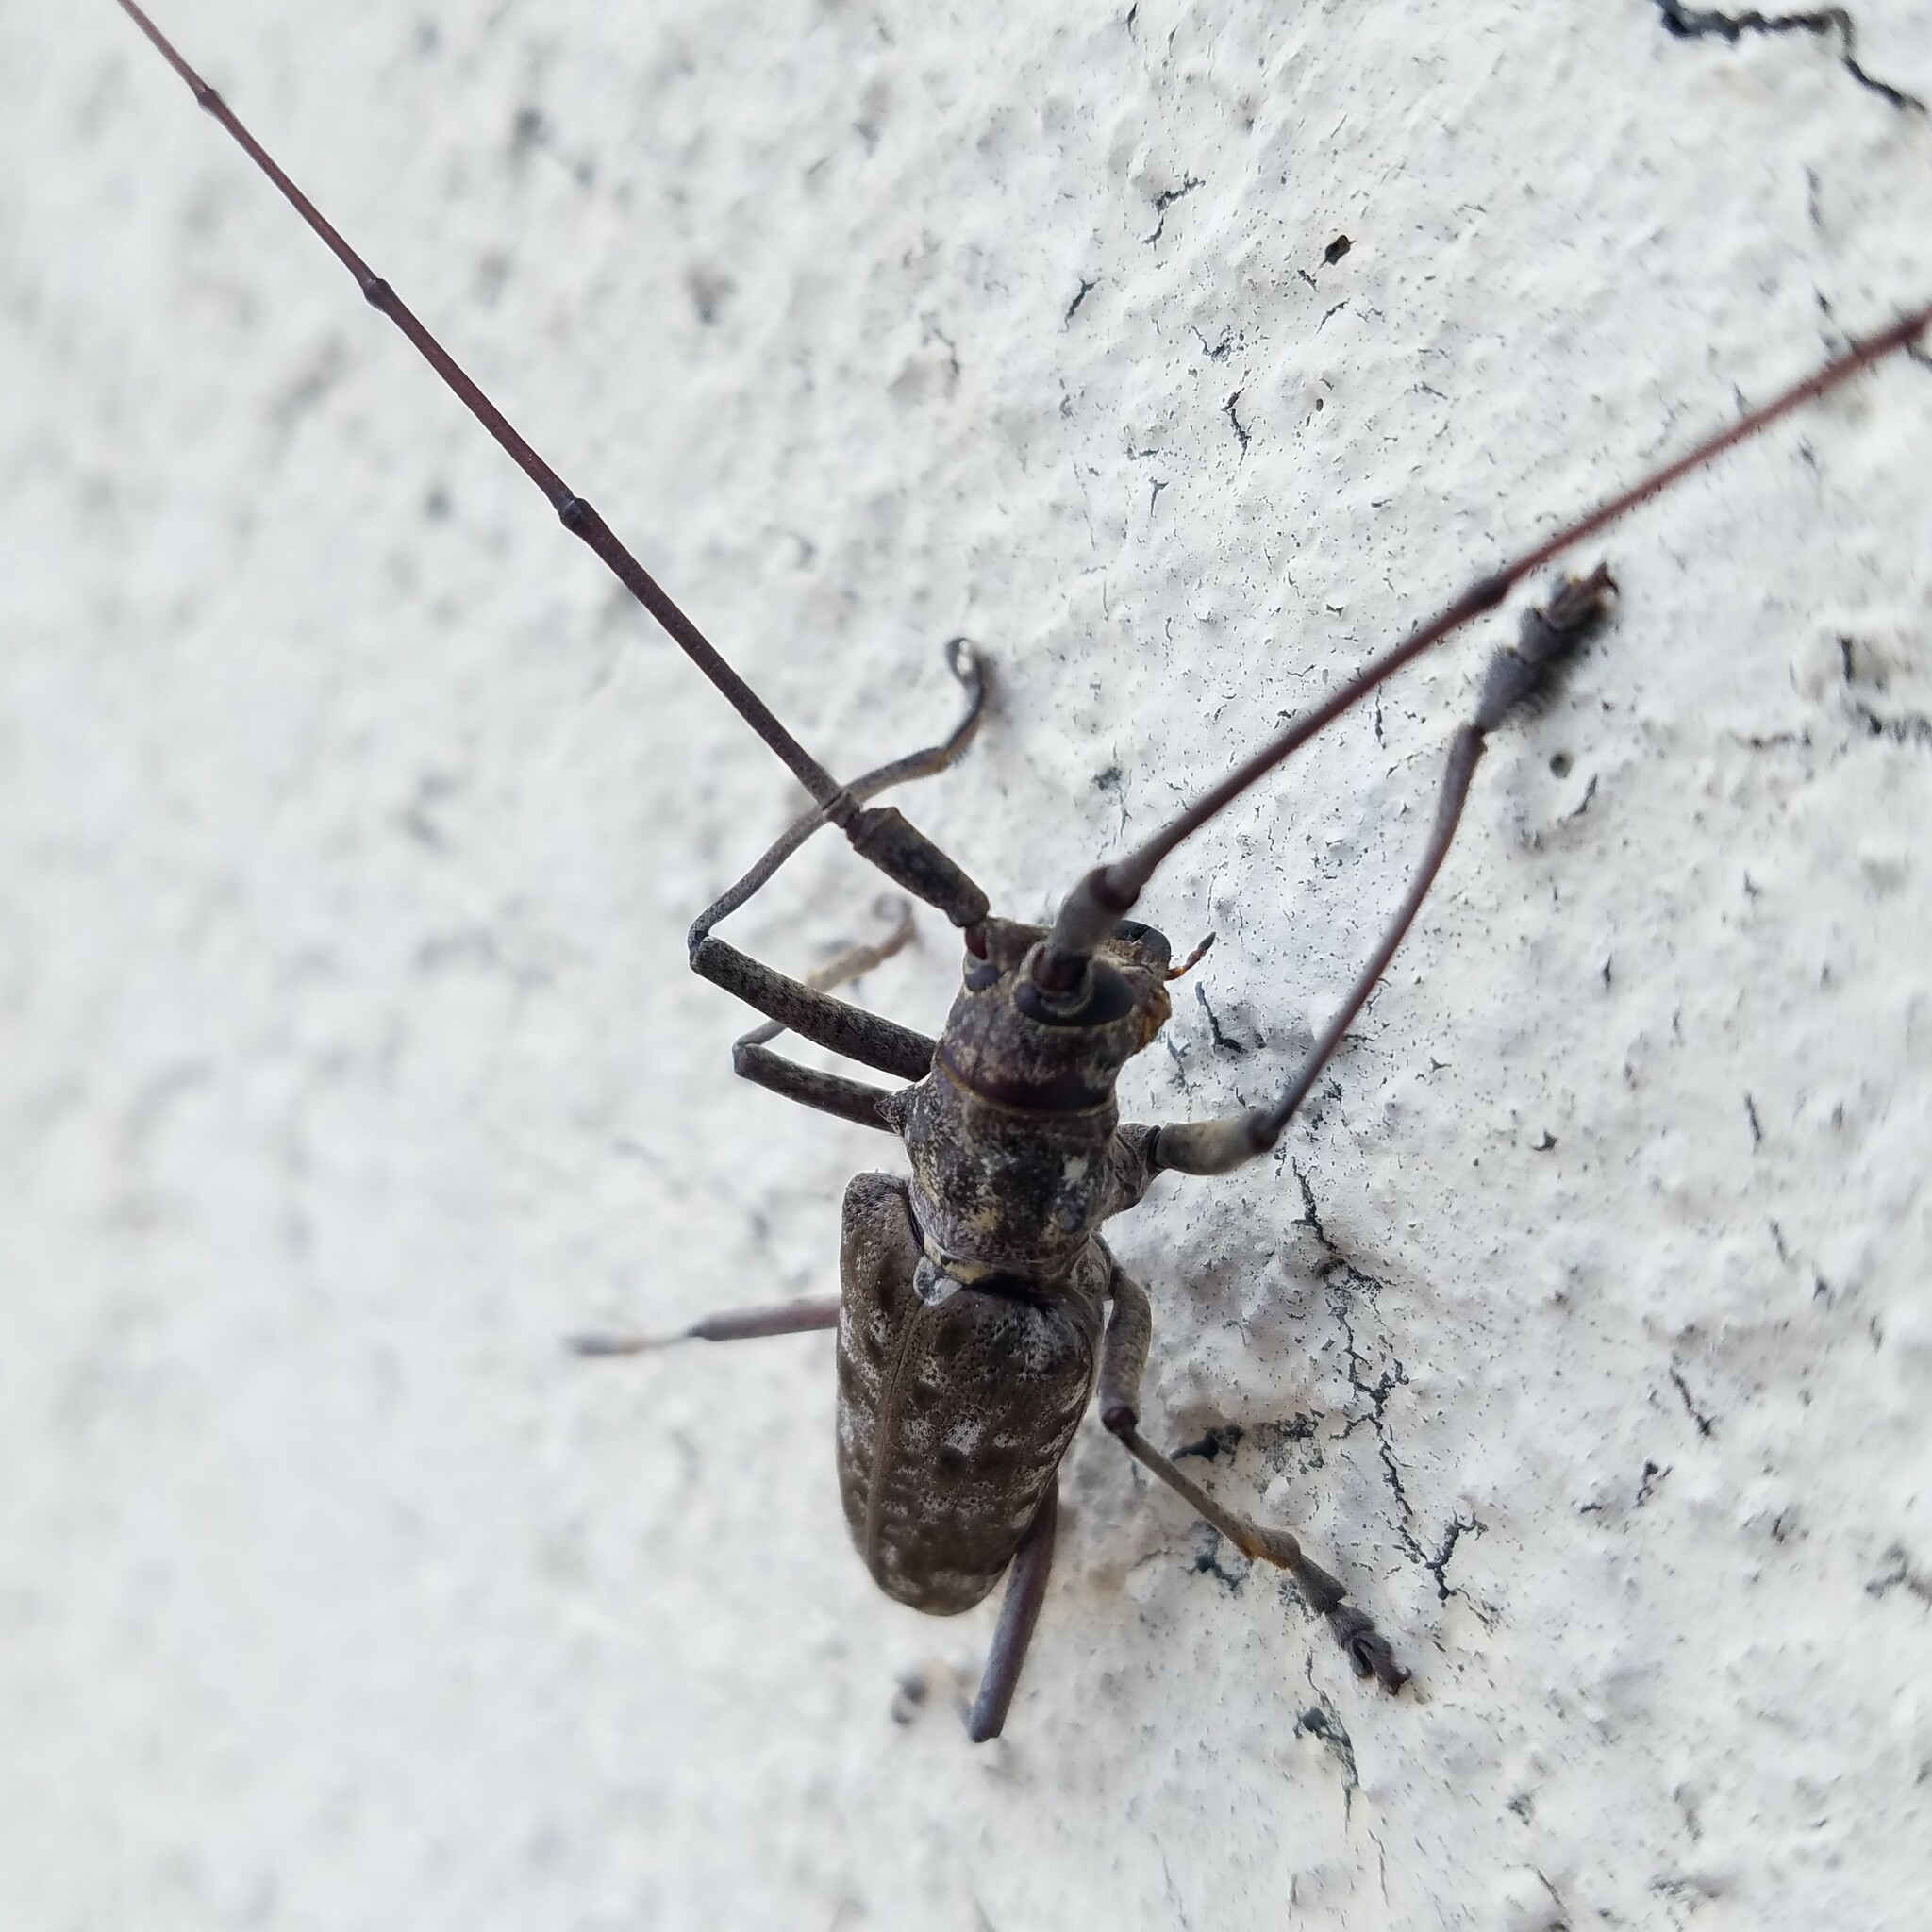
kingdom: Animalia
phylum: Arthropoda
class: Insecta
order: Coleoptera
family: Cerambycidae
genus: Monochamus
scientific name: Monochamus titillator
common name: Southern pine sawyer
